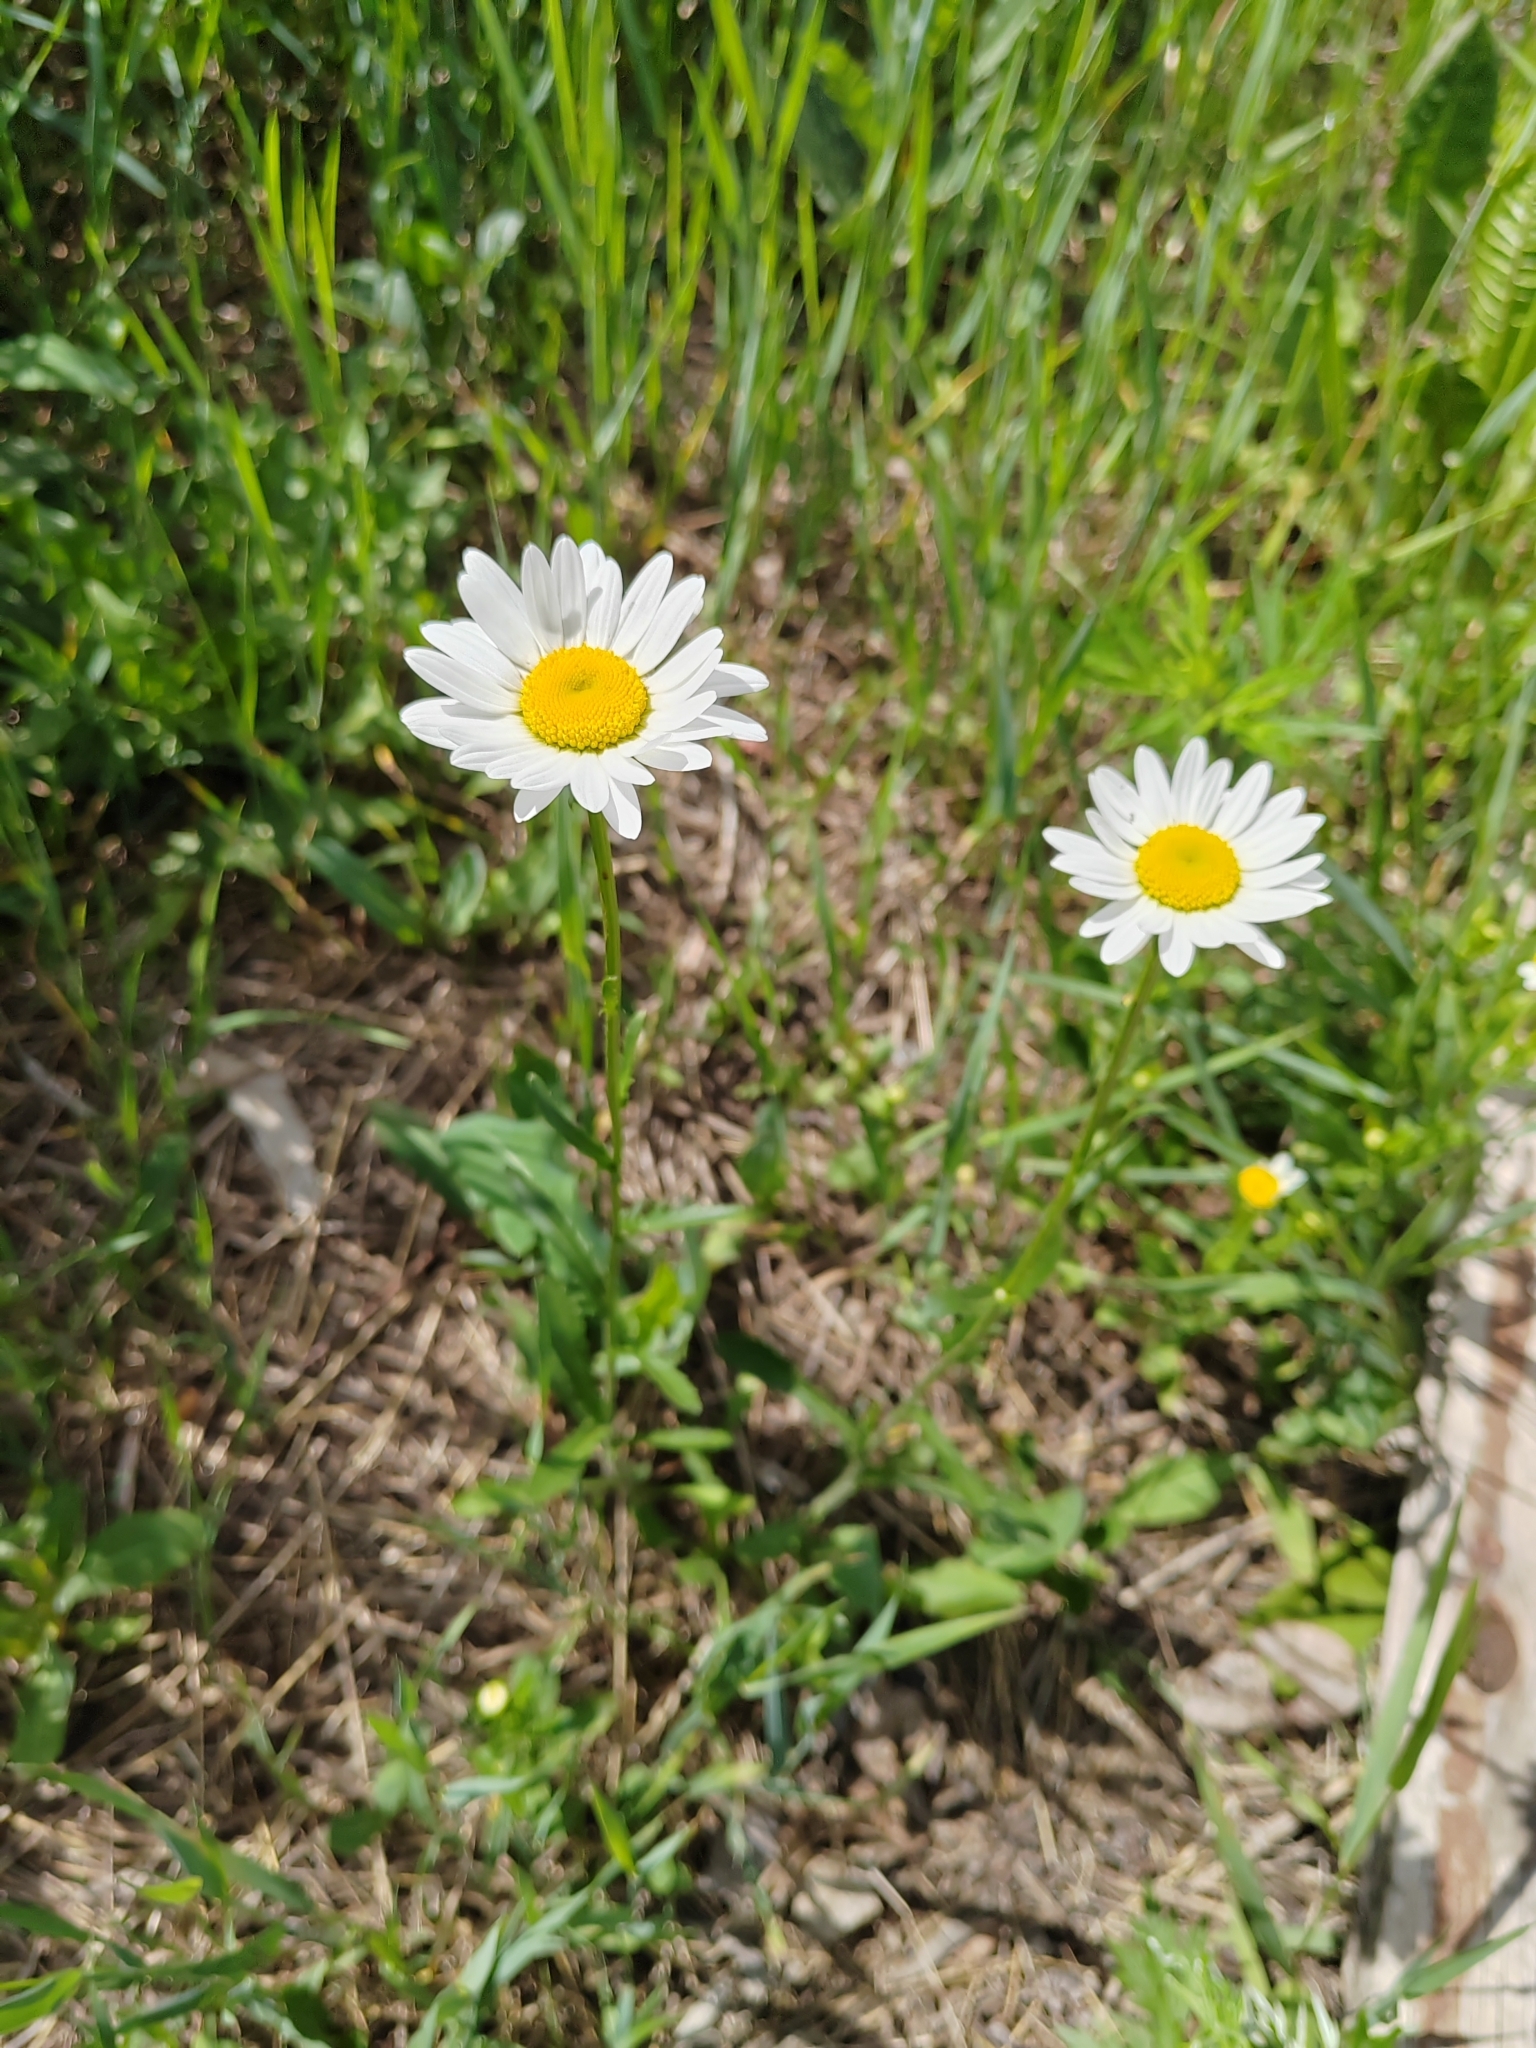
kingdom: Plantae
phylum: Tracheophyta
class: Magnoliopsida
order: Asterales
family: Asteraceae
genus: Leucanthemum
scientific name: Leucanthemum ircutianum
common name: Daisy
